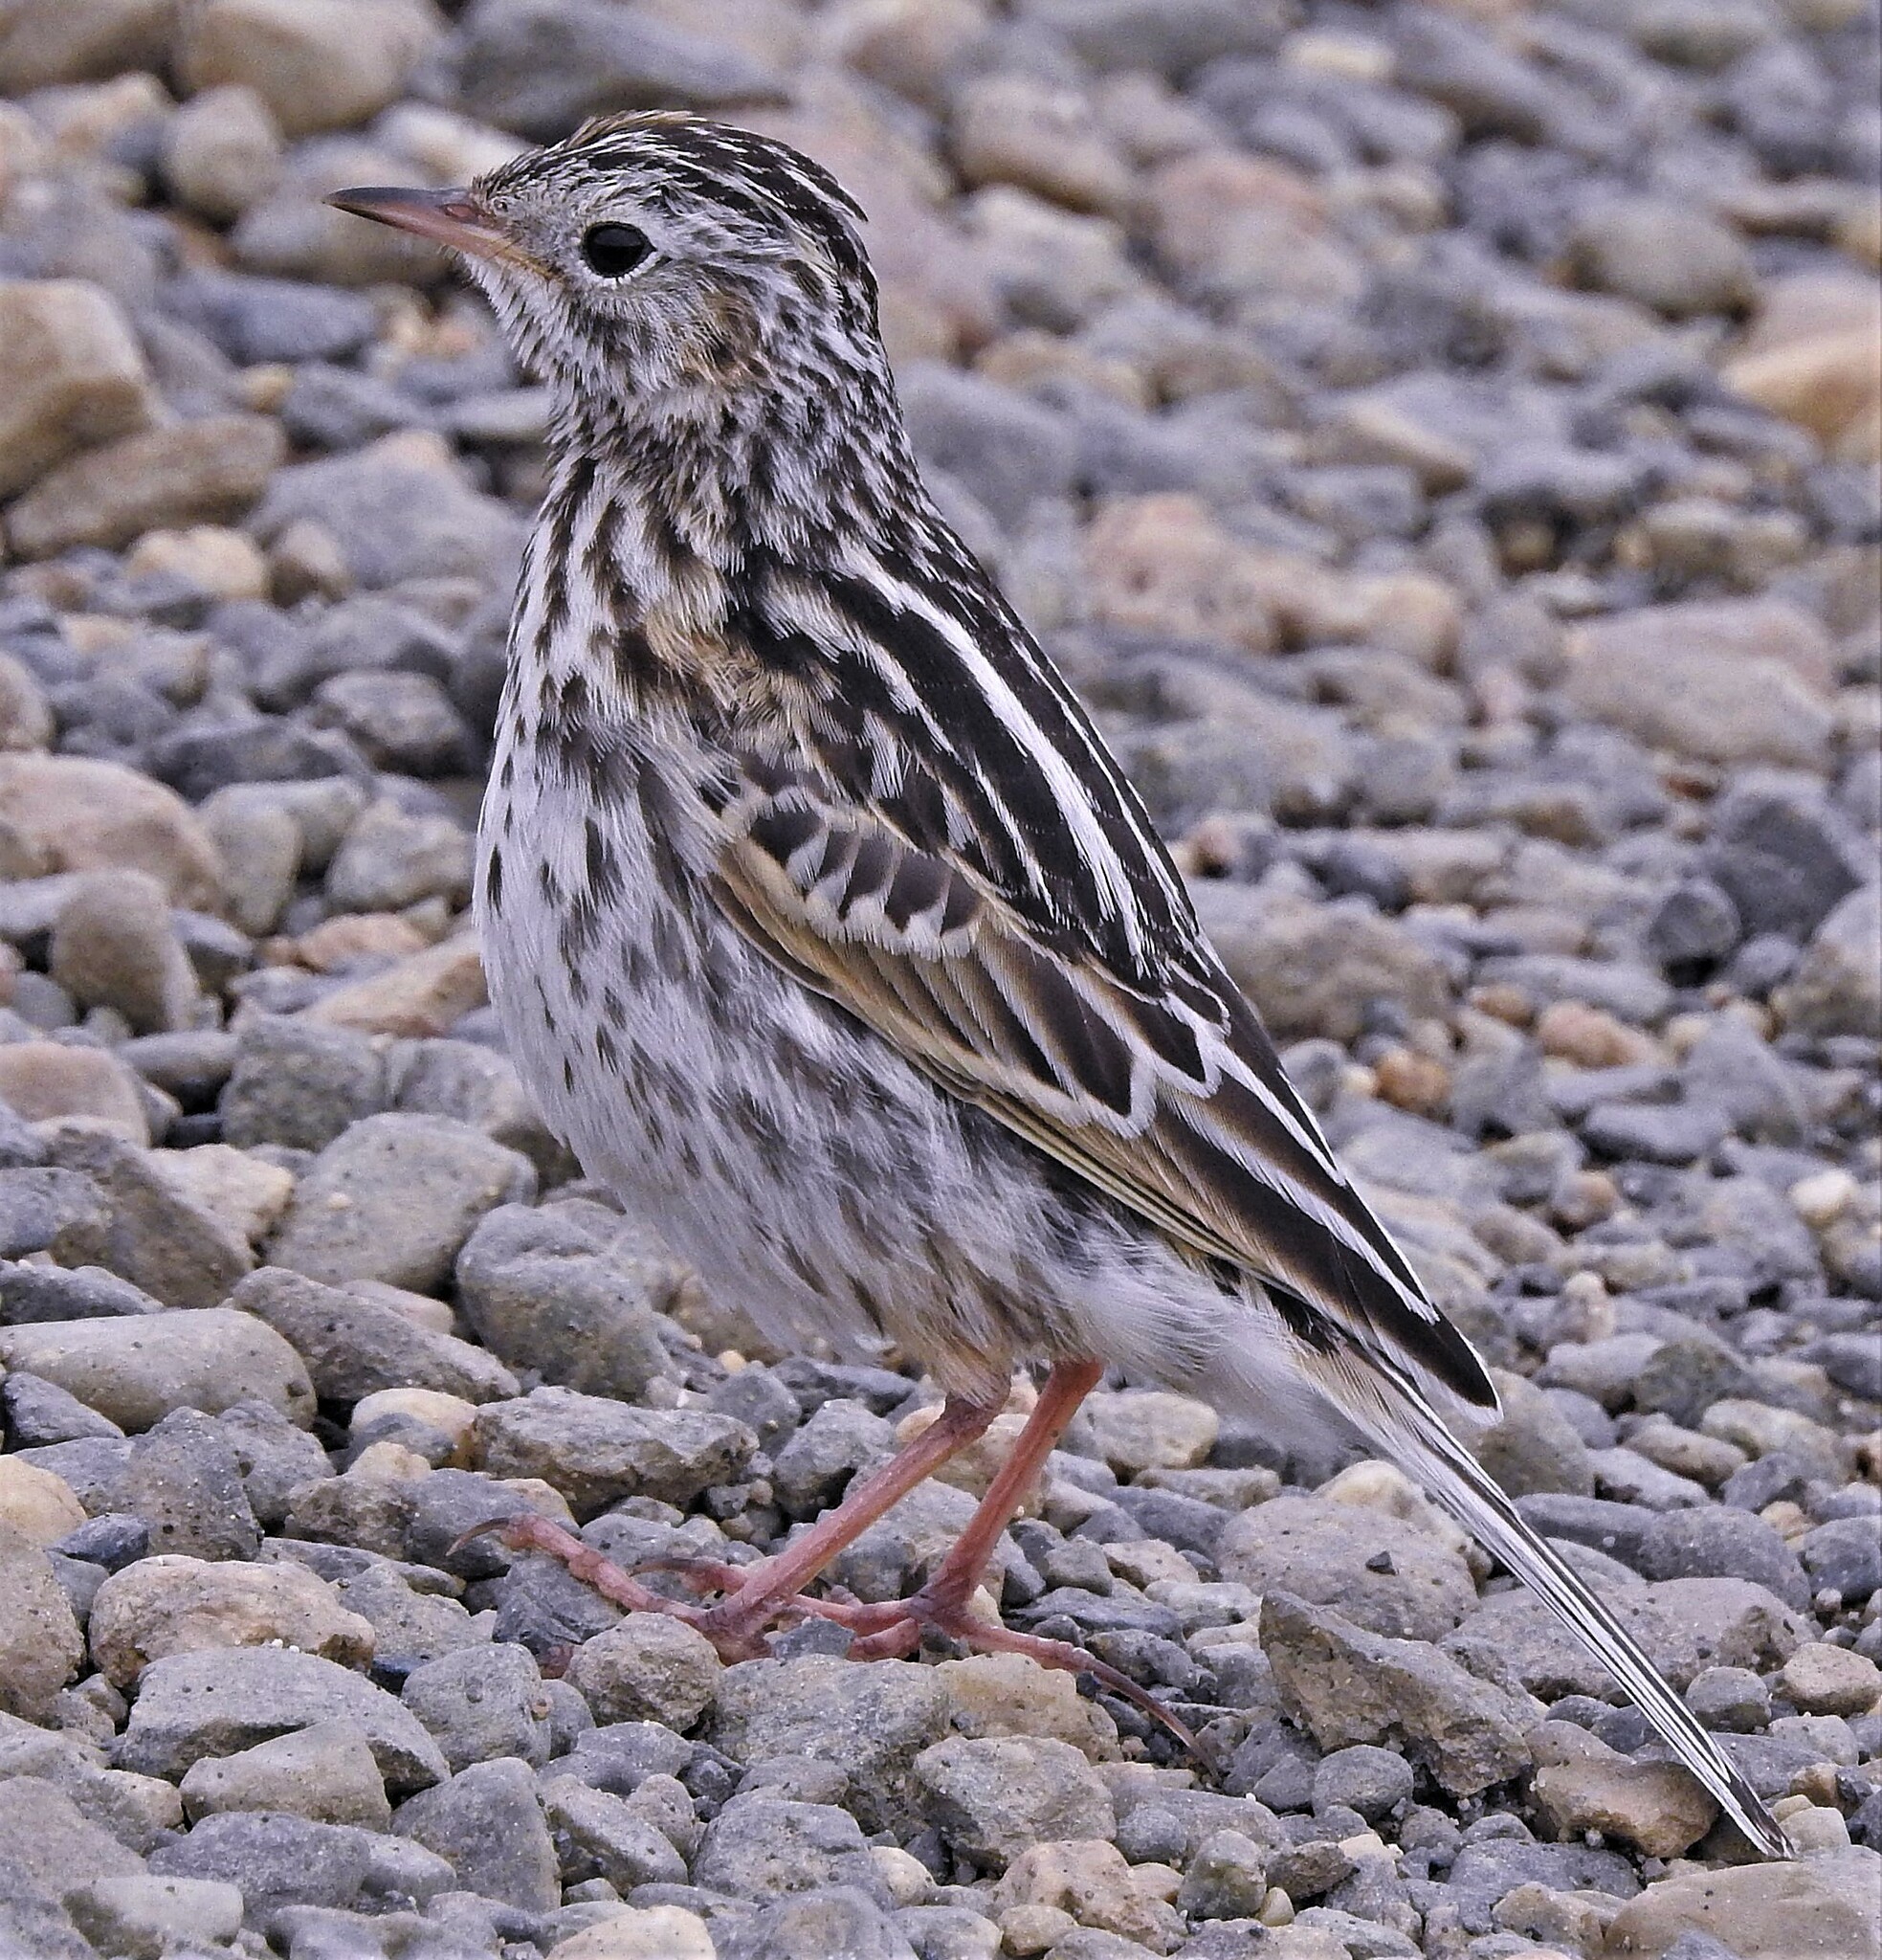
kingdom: Animalia
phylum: Chordata
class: Aves
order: Passeriformes
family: Motacillidae
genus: Anthus
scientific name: Anthus correndera
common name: Correndera pipit
